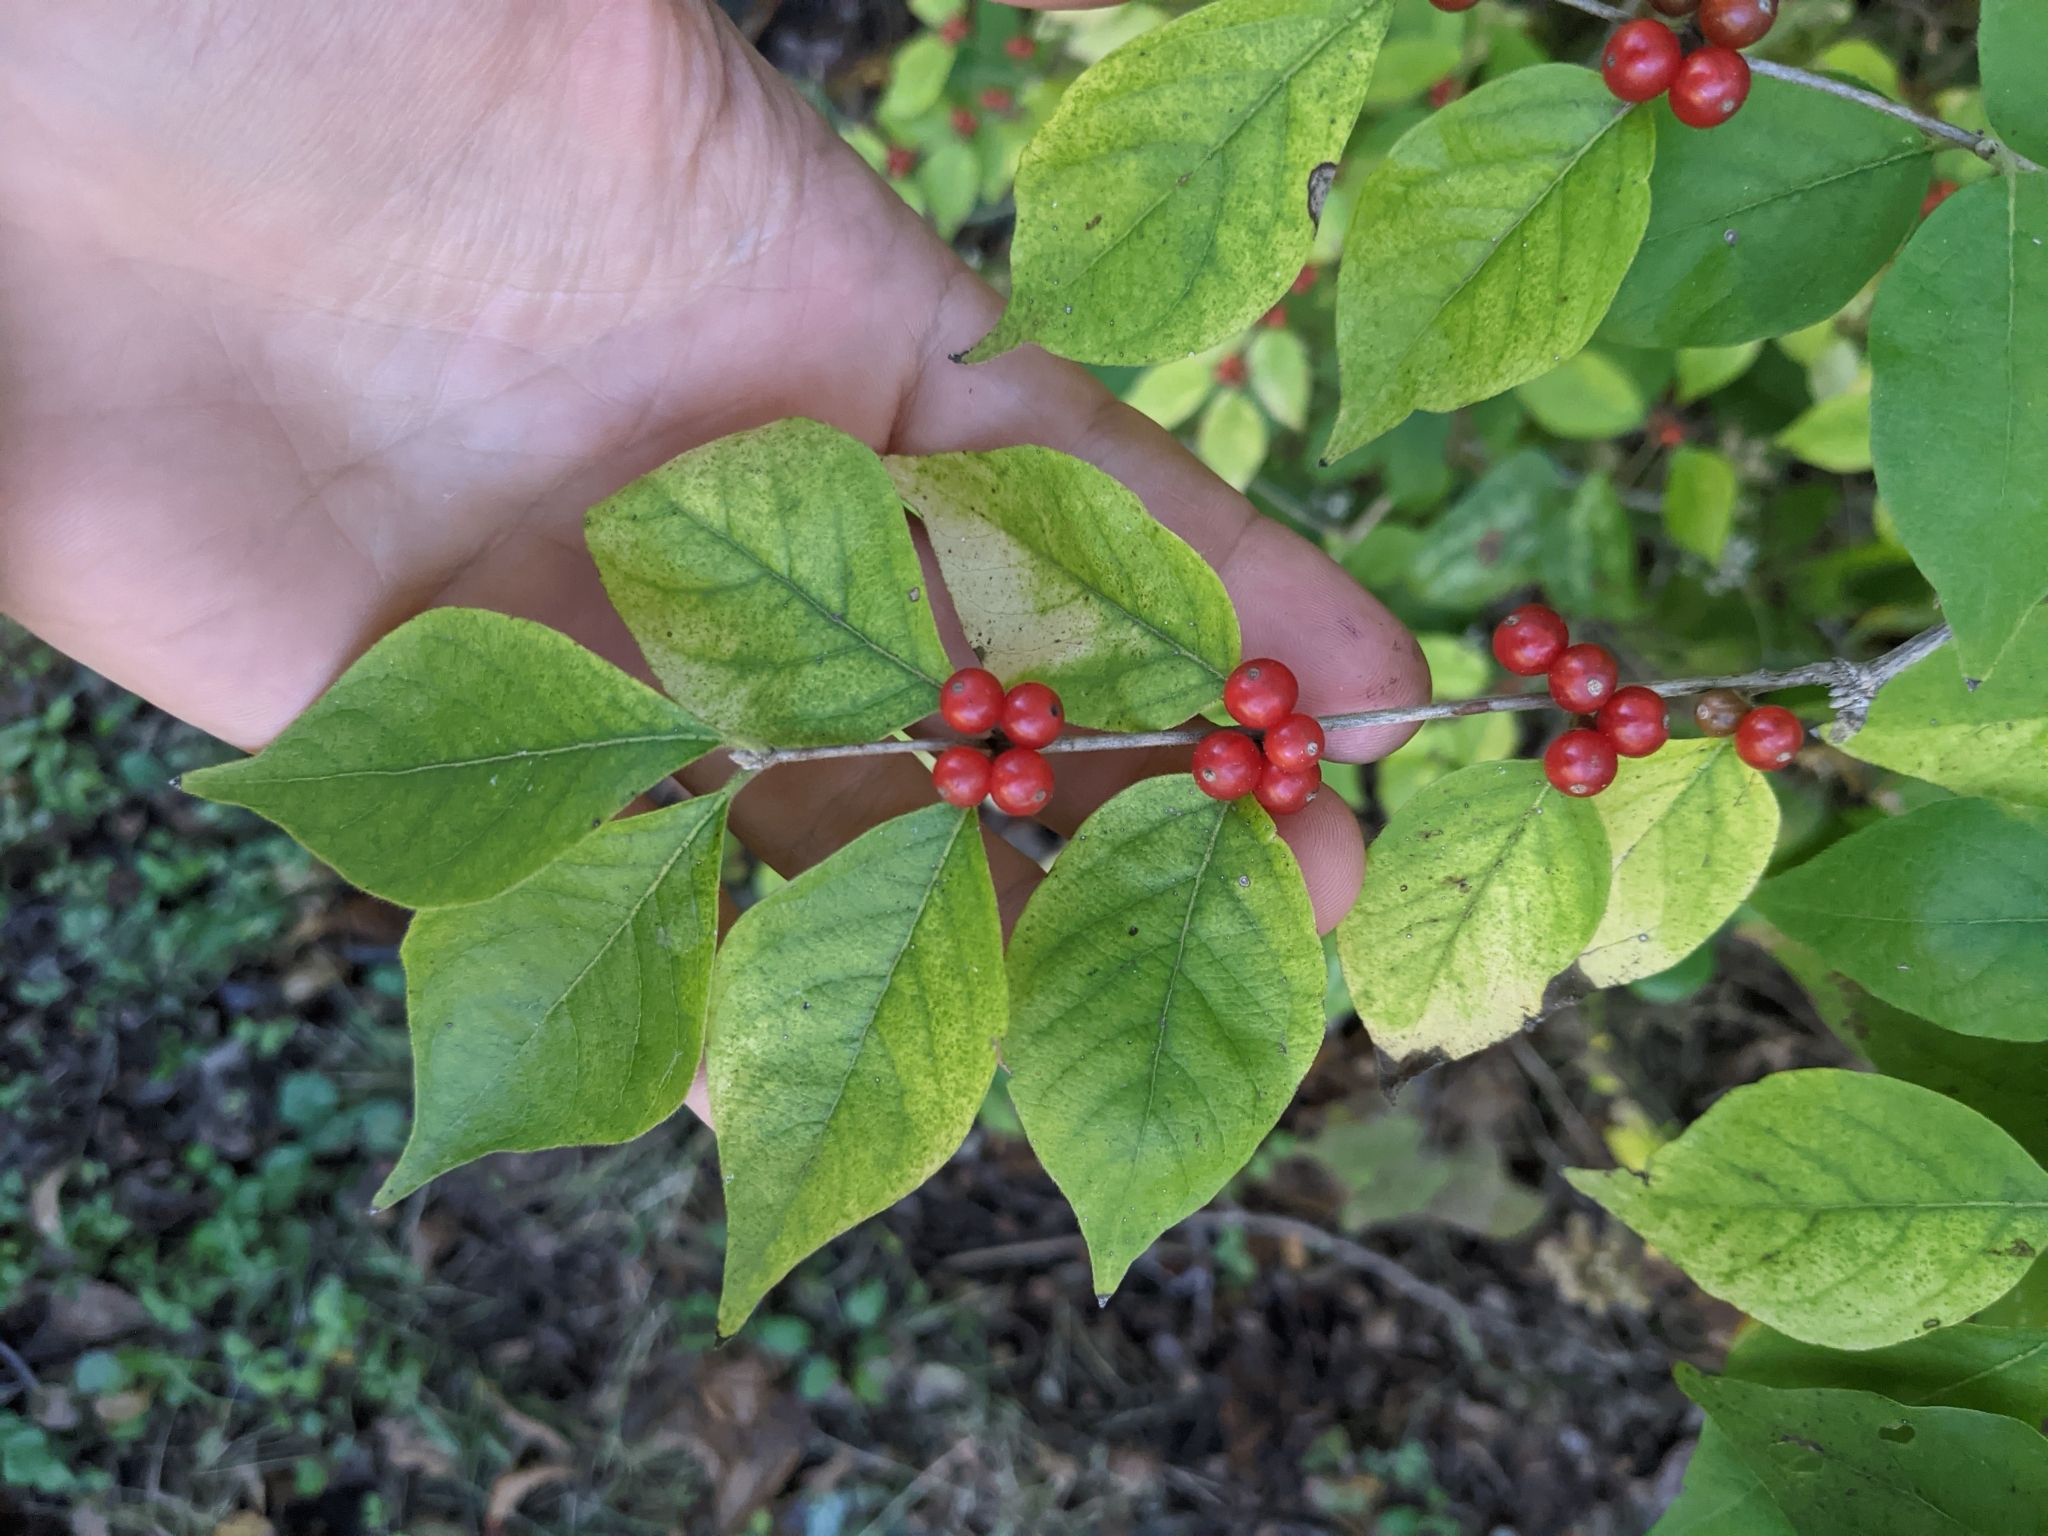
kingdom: Plantae
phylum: Tracheophyta
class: Magnoliopsida
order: Dipsacales
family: Caprifoliaceae
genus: Lonicera
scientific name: Lonicera maackii
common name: Amur honeysuckle
